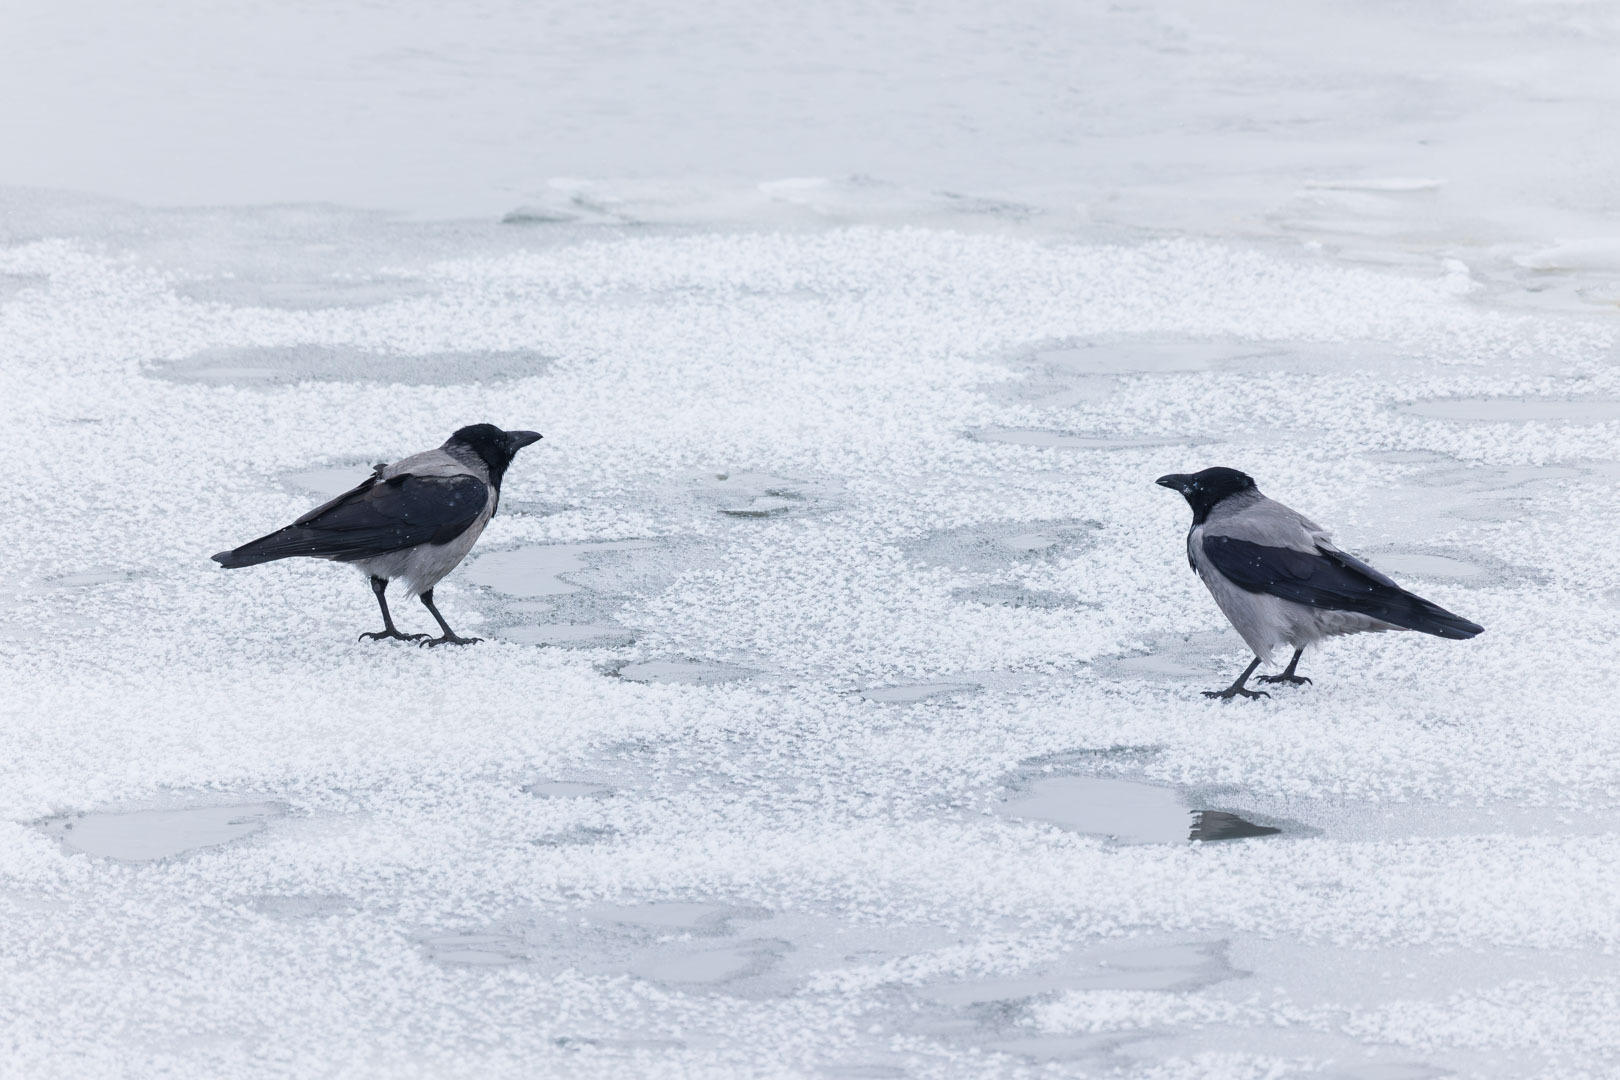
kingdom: Animalia
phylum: Chordata
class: Aves
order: Passeriformes
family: Corvidae
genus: Corvus
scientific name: Corvus cornix
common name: Hooded crow
